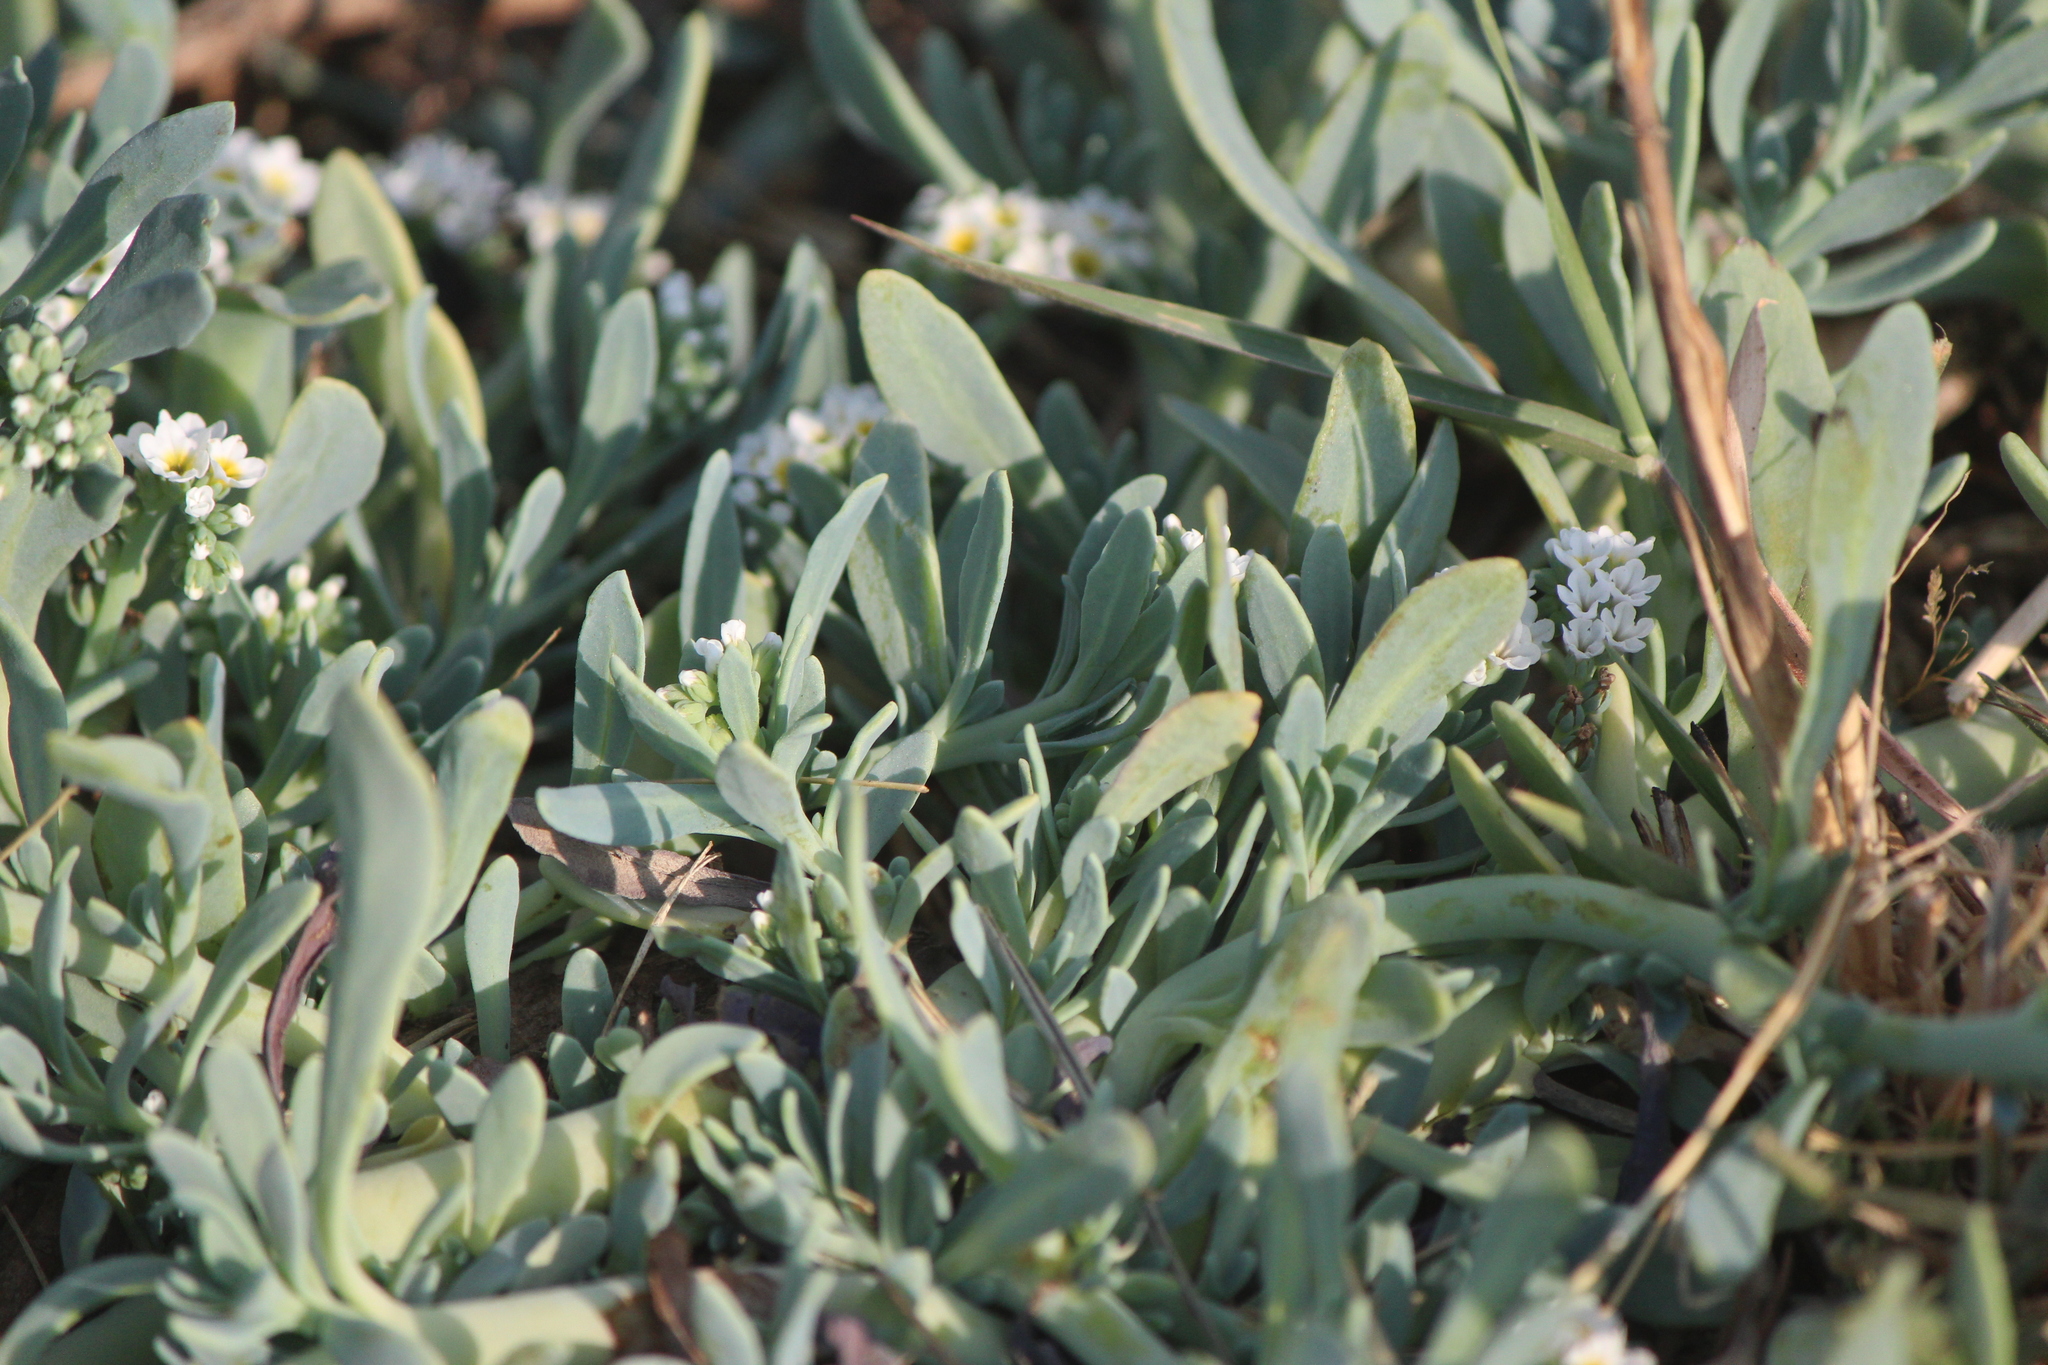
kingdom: Plantae
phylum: Tracheophyta
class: Magnoliopsida
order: Boraginales
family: Heliotropiaceae
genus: Heliotropium
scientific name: Heliotropium curassavicum
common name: Seaside heliotrope
